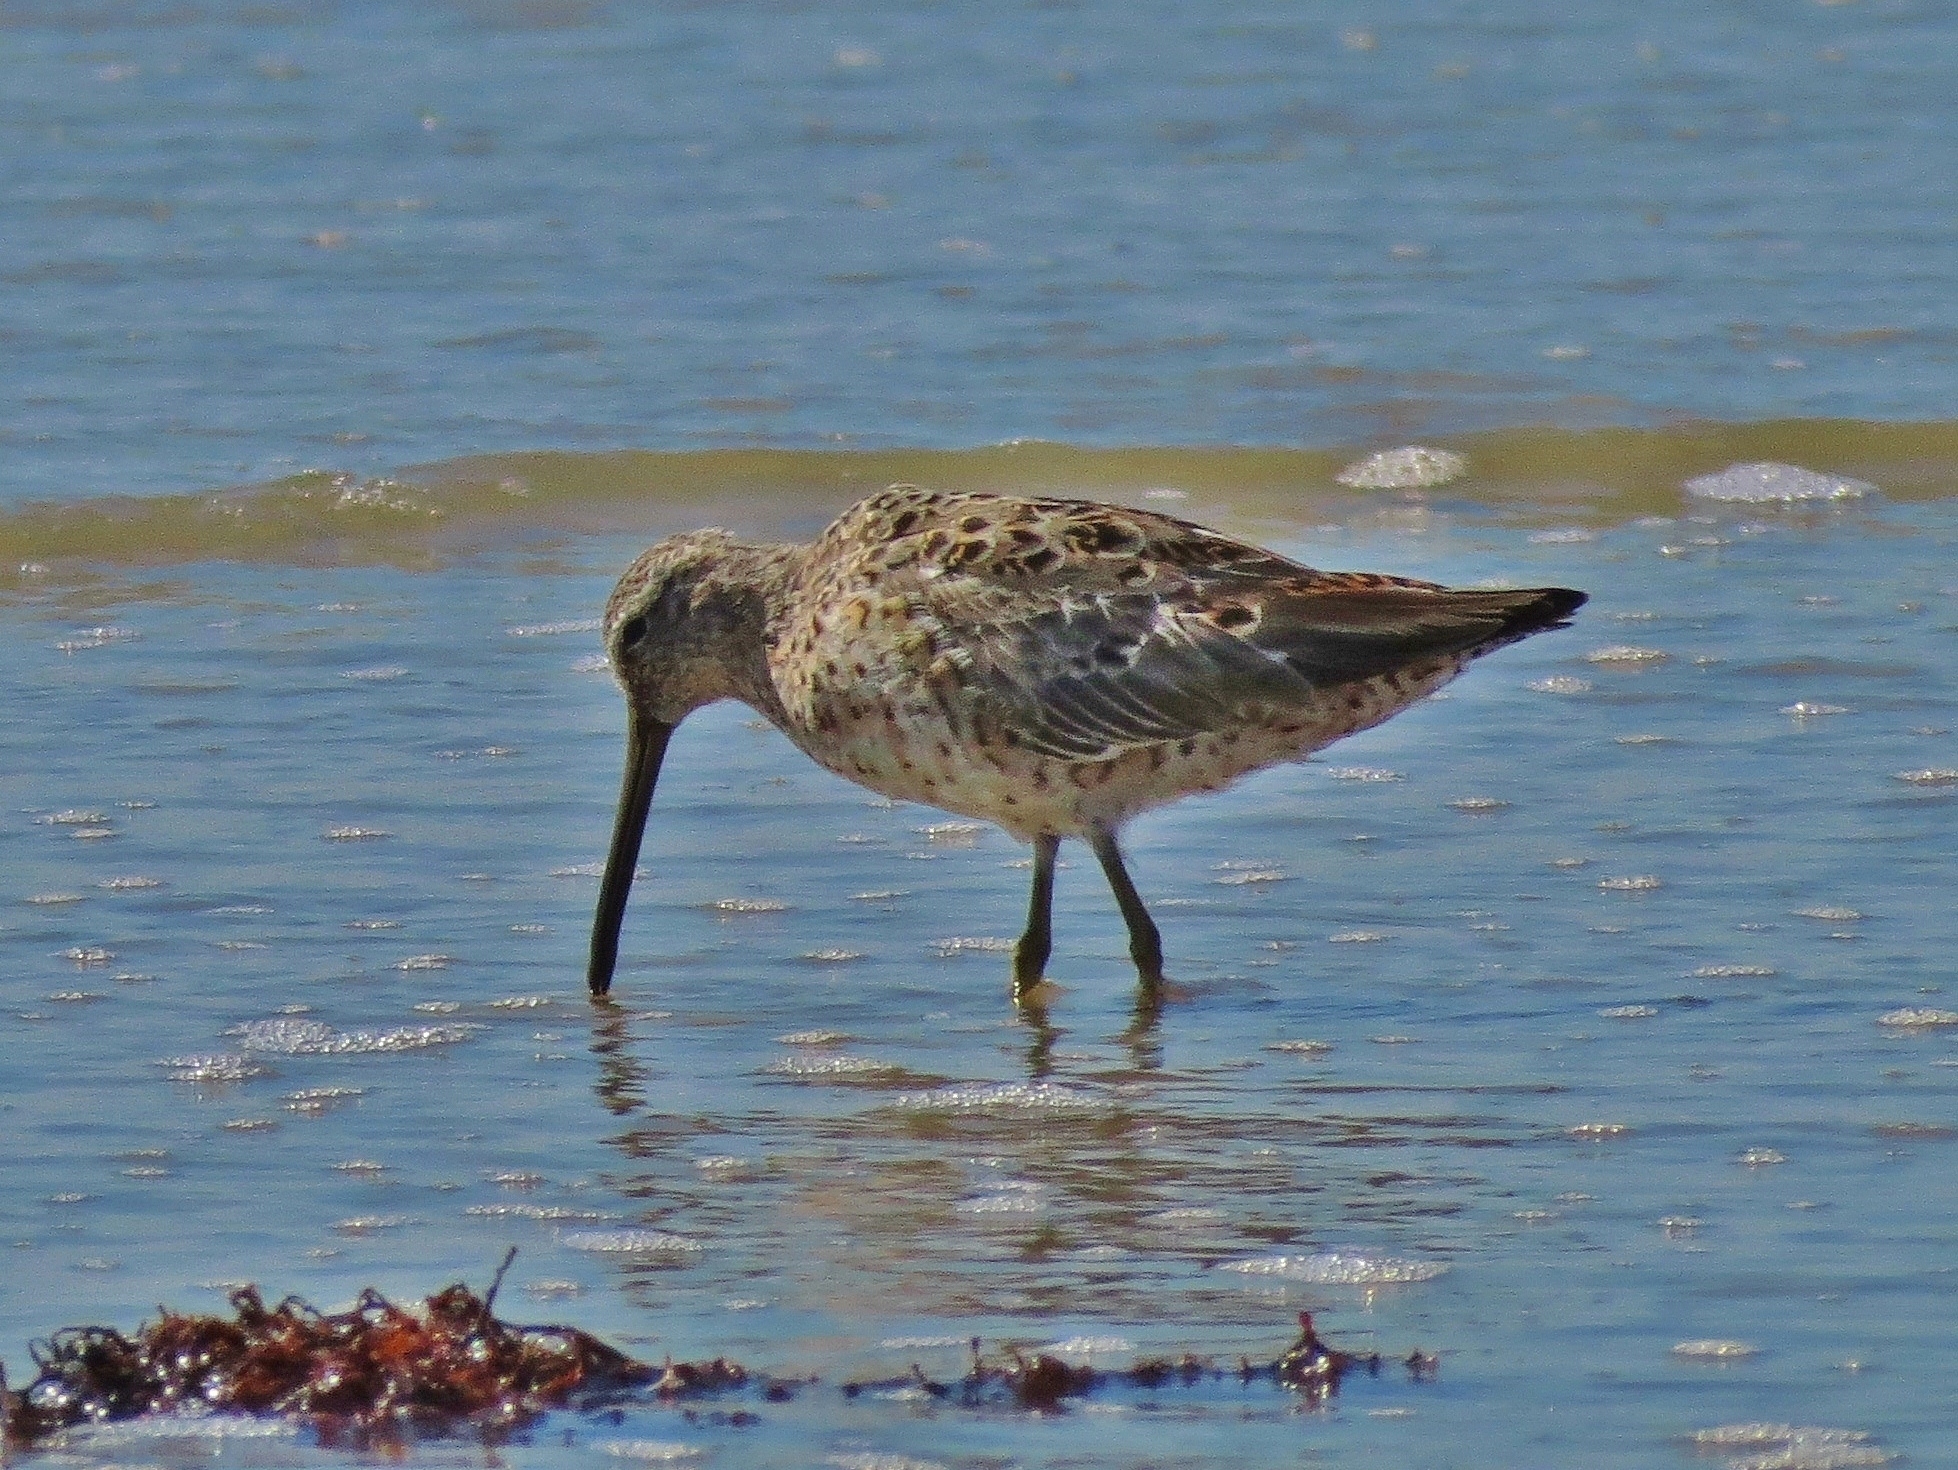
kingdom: Animalia
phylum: Chordata
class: Aves
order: Charadriiformes
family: Scolopacidae
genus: Limnodromus
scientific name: Limnodromus griseus
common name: Short-billed dowitcher
